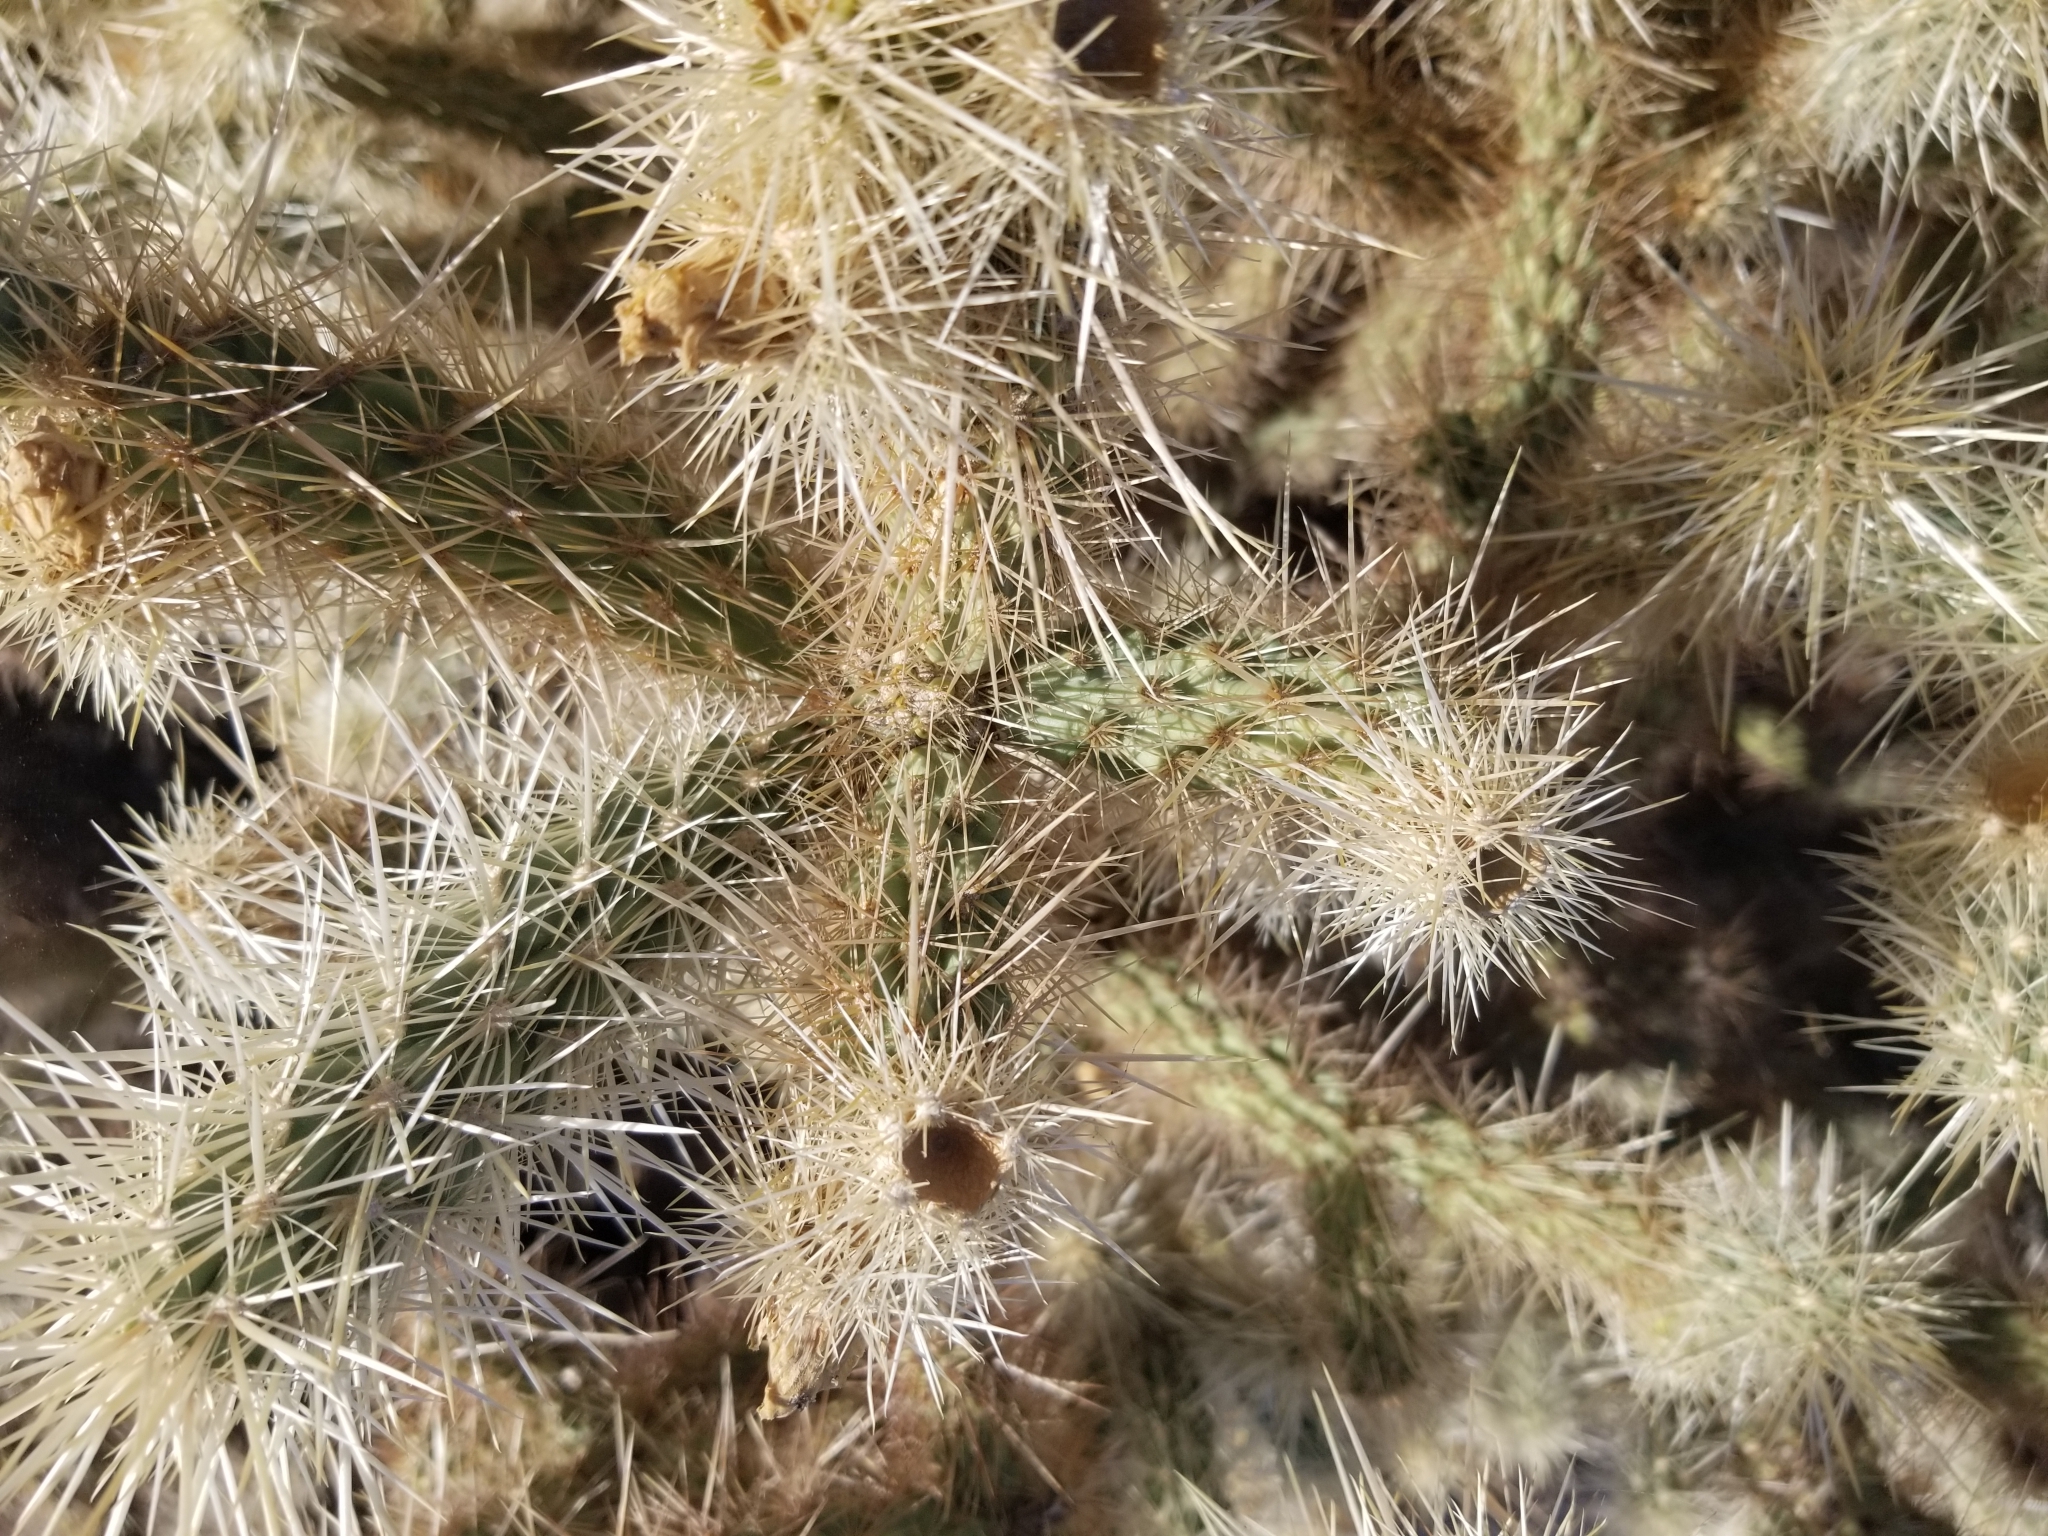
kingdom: Plantae
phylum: Tracheophyta
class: Magnoliopsida
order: Caryophyllales
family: Cactaceae
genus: Cylindropuntia
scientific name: Cylindropuntia echinocarpa
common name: Ground cholla
